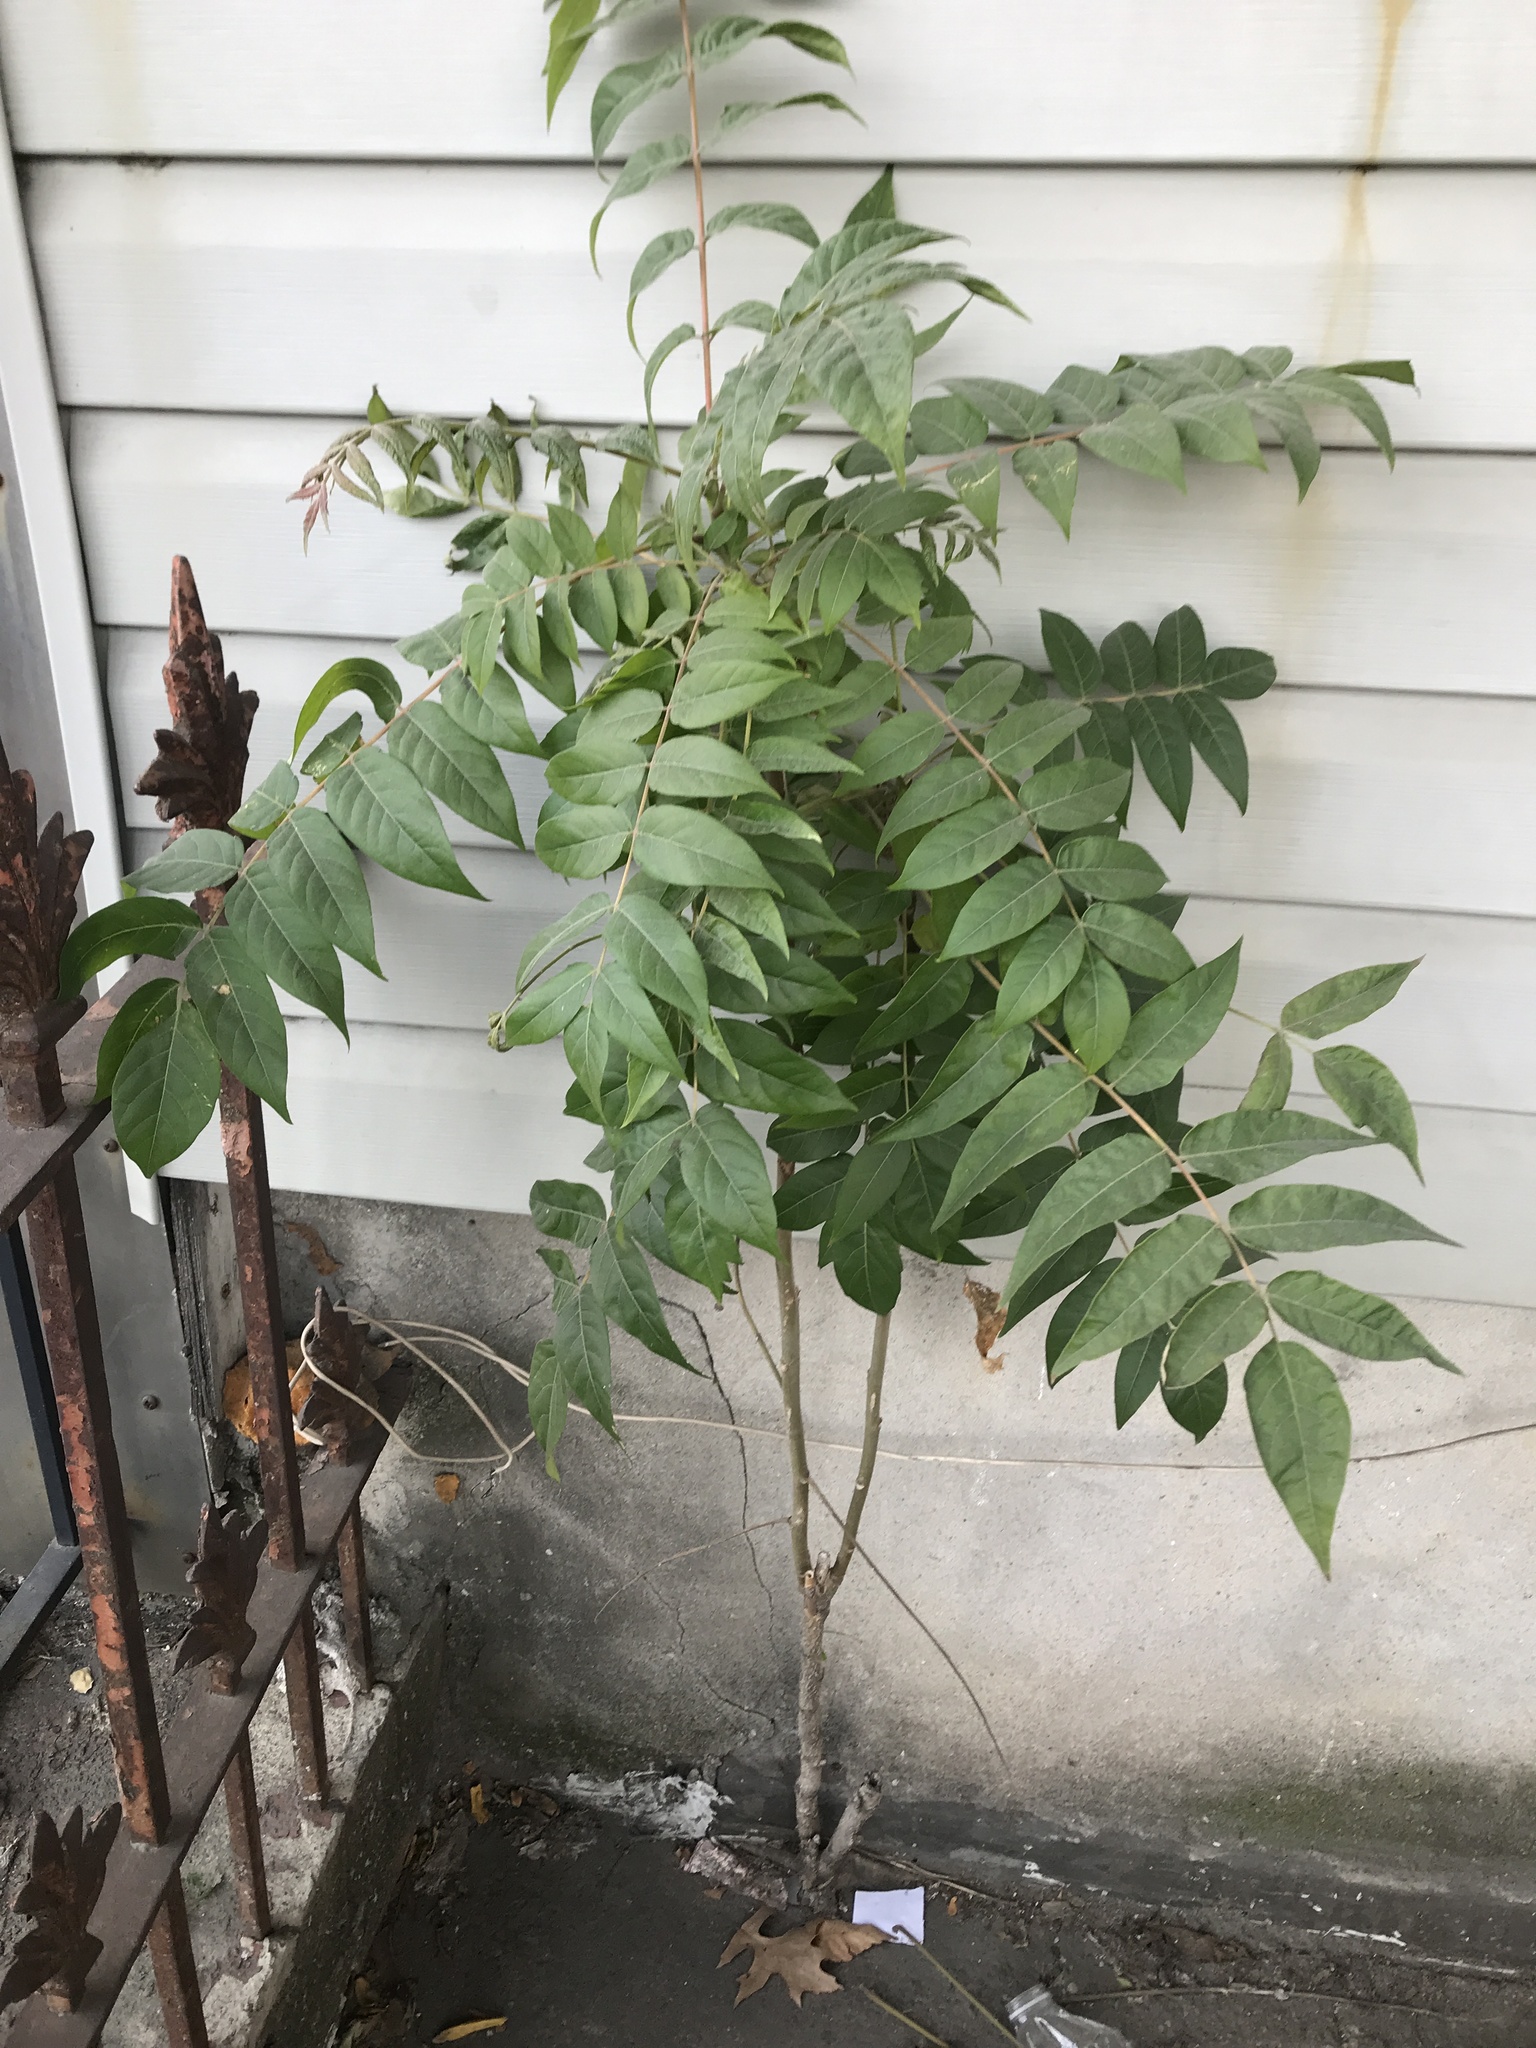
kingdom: Plantae
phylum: Tracheophyta
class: Magnoliopsida
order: Sapindales
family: Simaroubaceae
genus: Ailanthus
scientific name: Ailanthus altissima
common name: Tree-of-heaven
